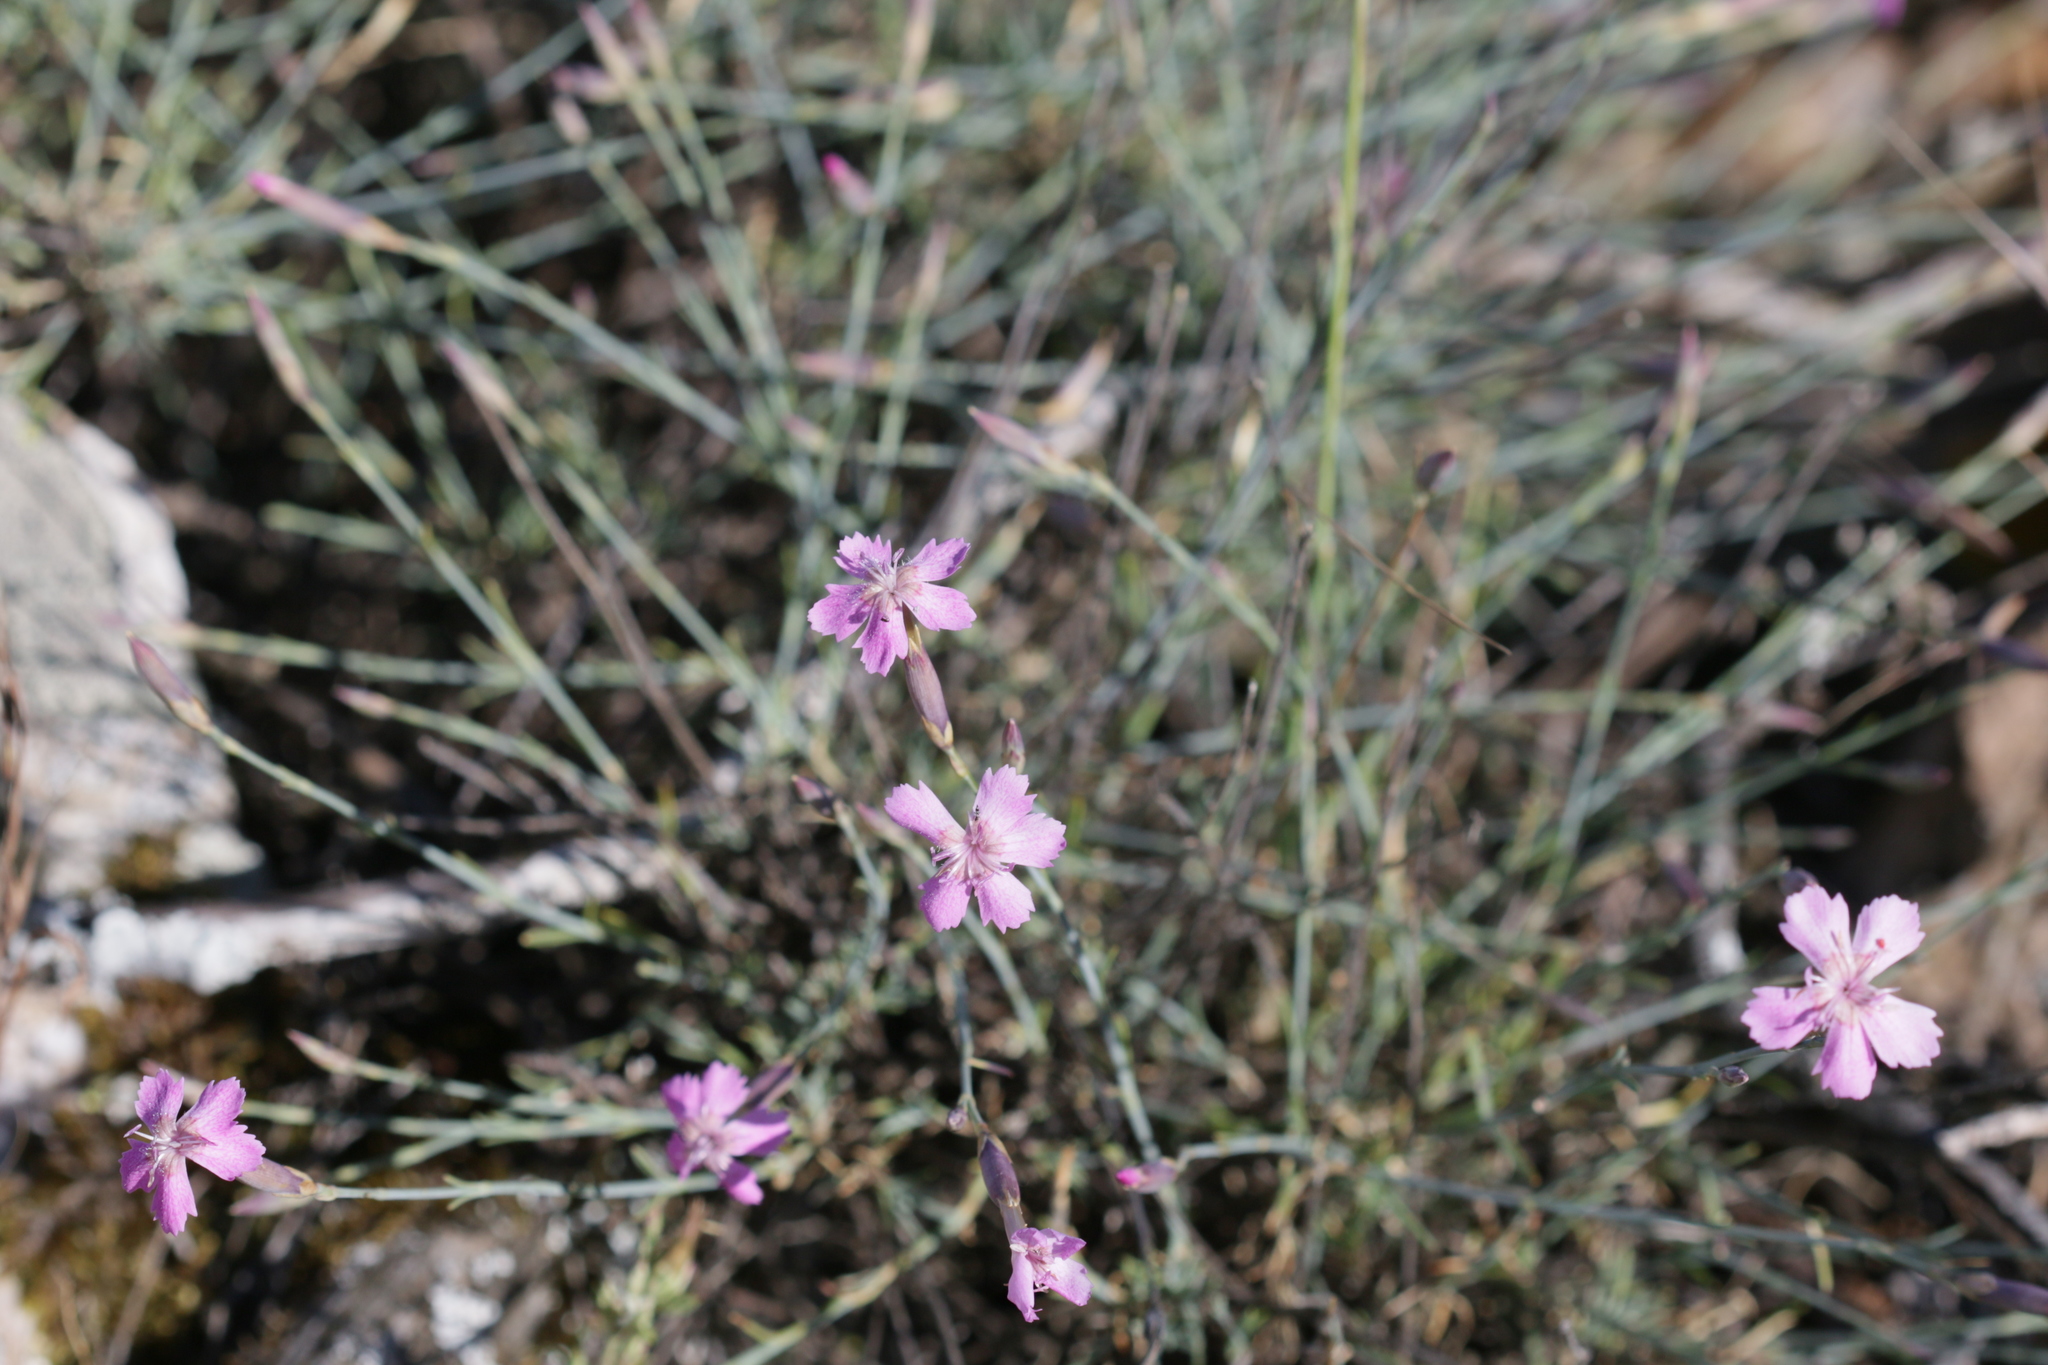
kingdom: Plantae
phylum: Tracheophyta
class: Magnoliopsida
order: Caryophyllales
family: Caryophyllaceae
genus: Dianthus
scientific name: Dianthus lusitanus
